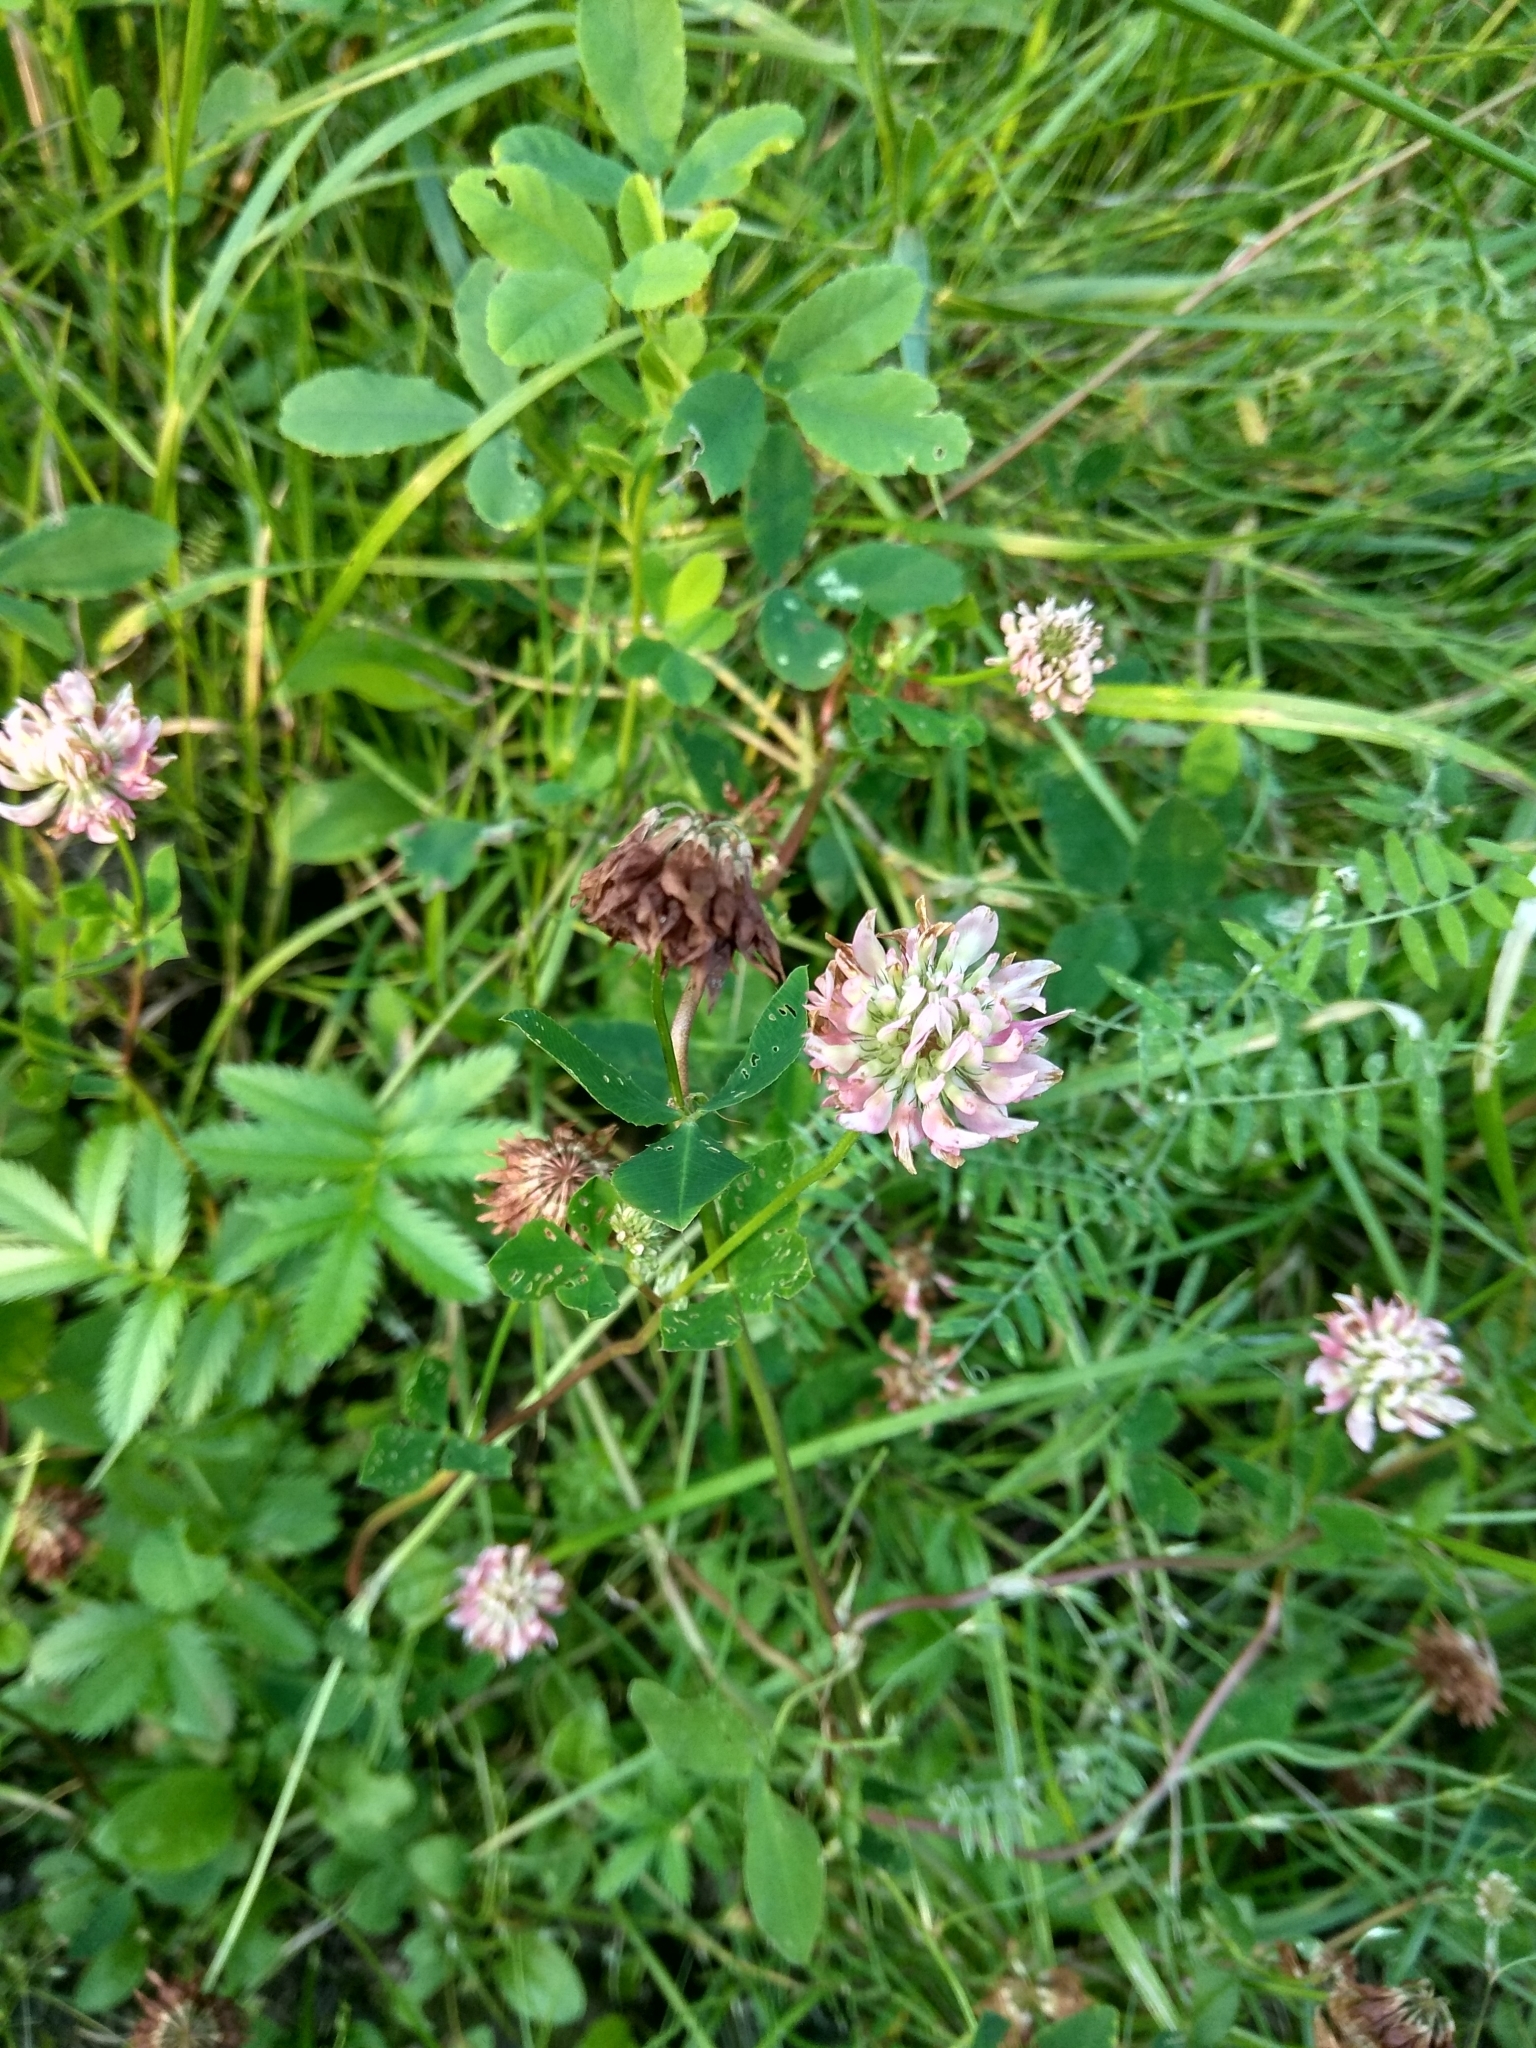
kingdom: Plantae
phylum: Tracheophyta
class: Magnoliopsida
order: Fabales
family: Fabaceae
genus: Trifolium
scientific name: Trifolium hybridum
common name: Alsike clover
